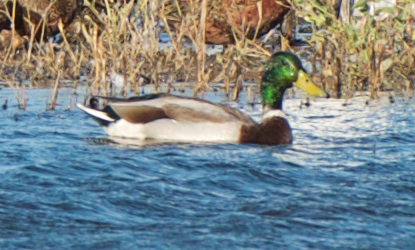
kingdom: Animalia
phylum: Chordata
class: Aves
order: Anseriformes
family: Anatidae
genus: Anas
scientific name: Anas platyrhynchos
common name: Mallard
